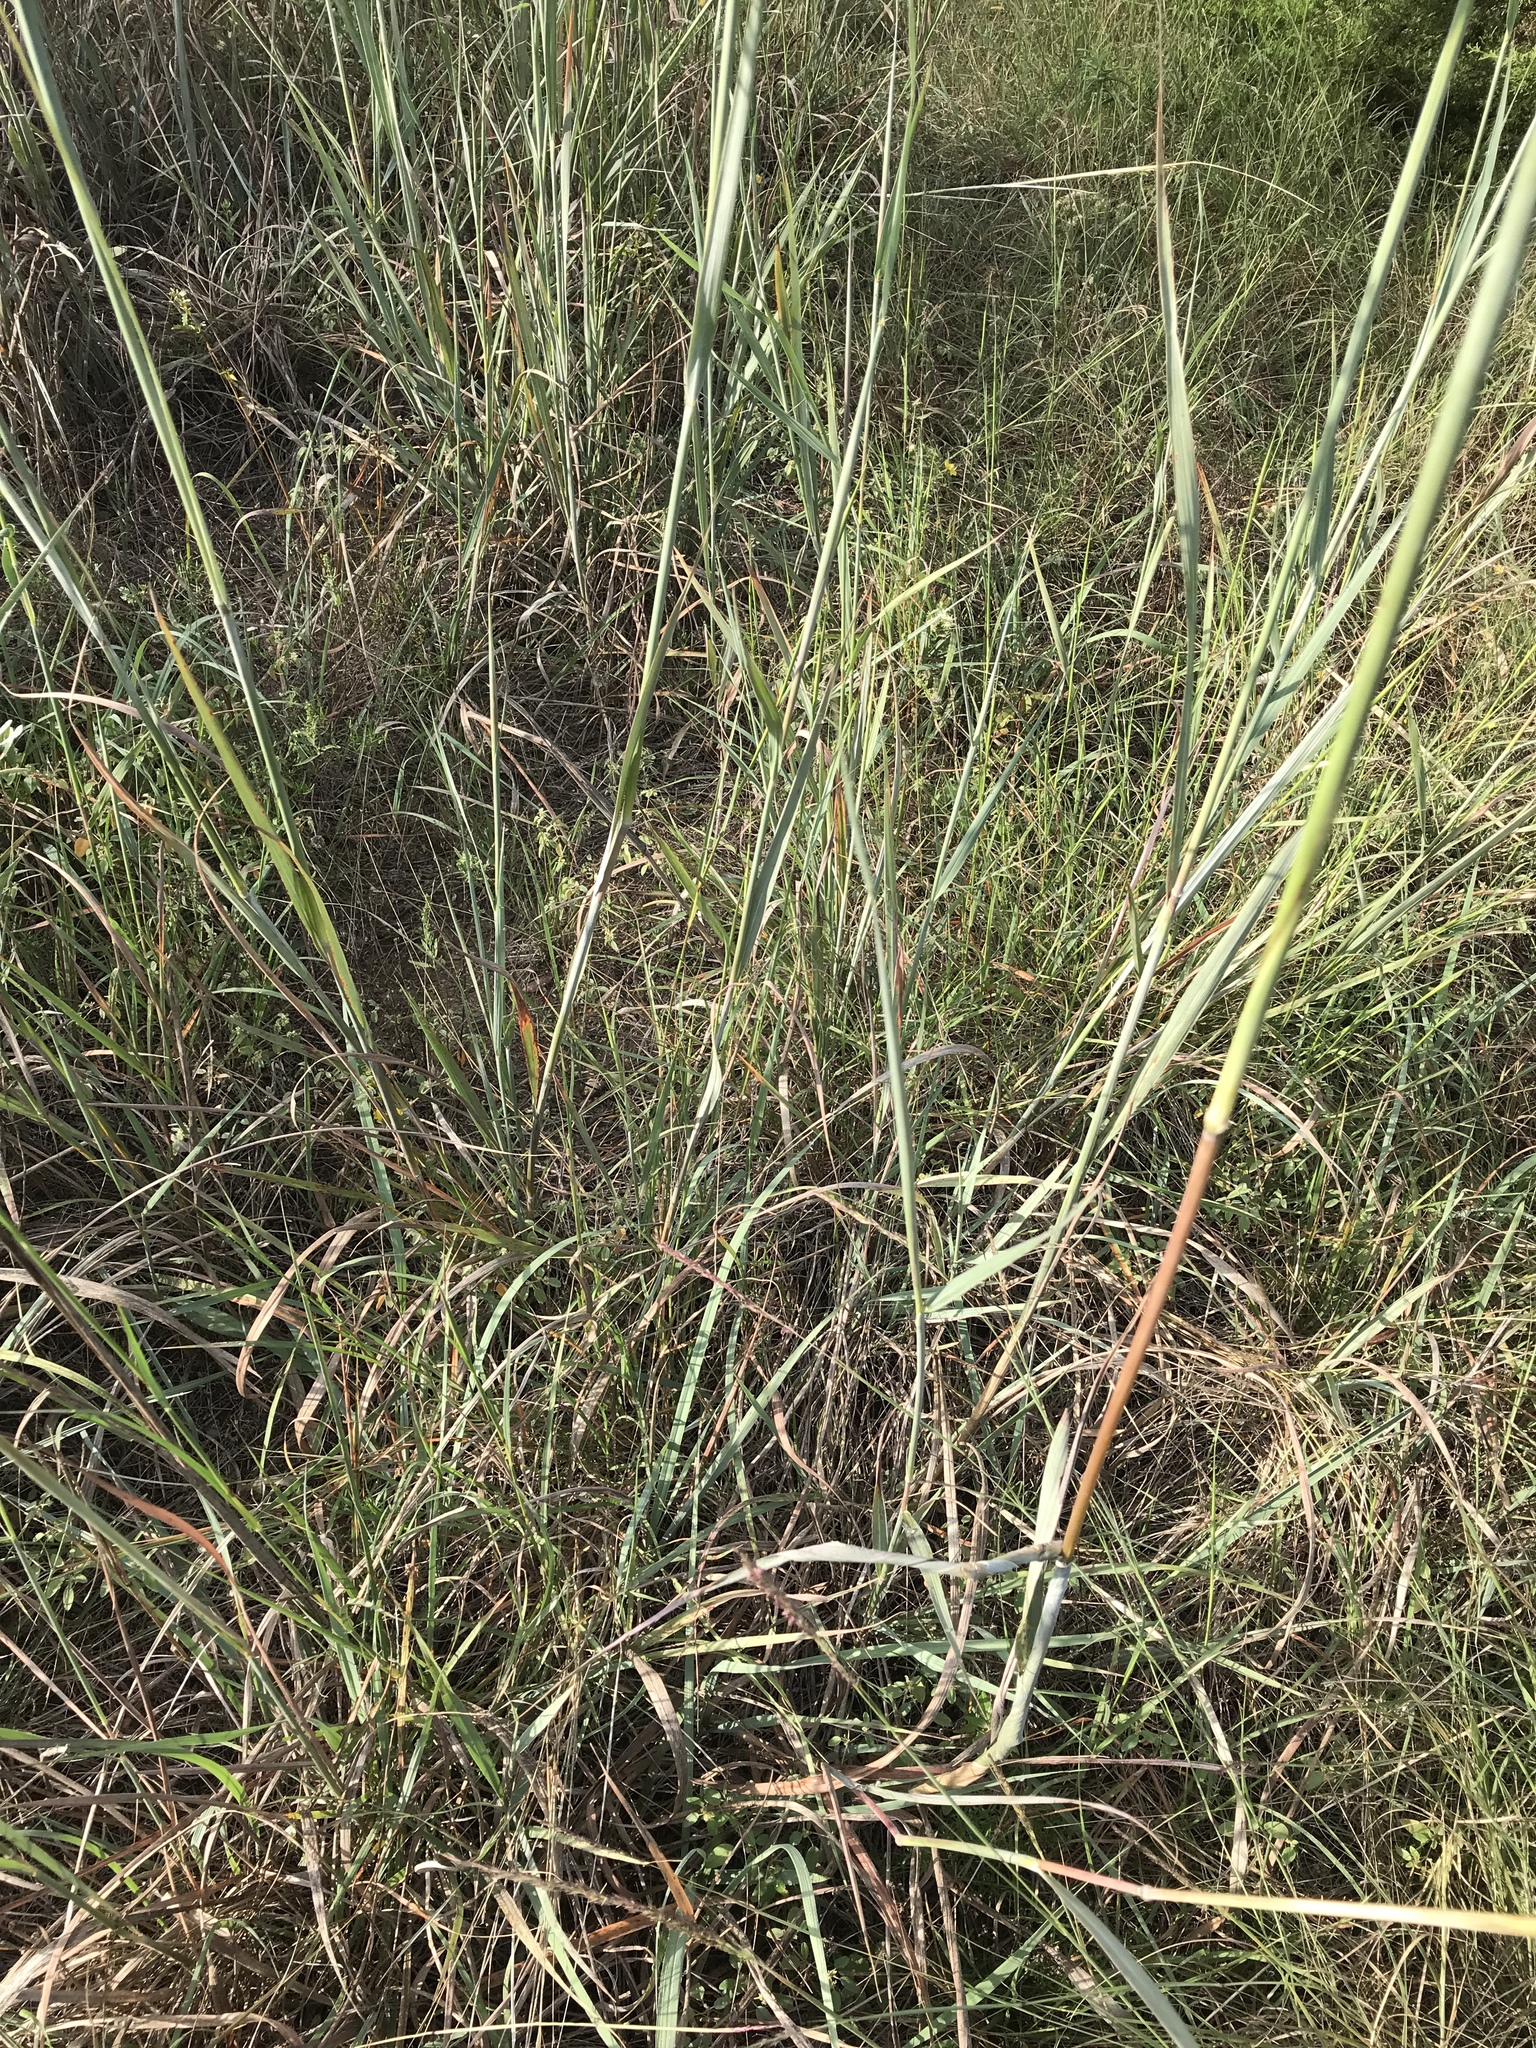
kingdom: Plantae
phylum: Tracheophyta
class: Liliopsida
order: Poales
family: Poaceae
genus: Sorghastrum
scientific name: Sorghastrum nutans
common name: Indian grass
